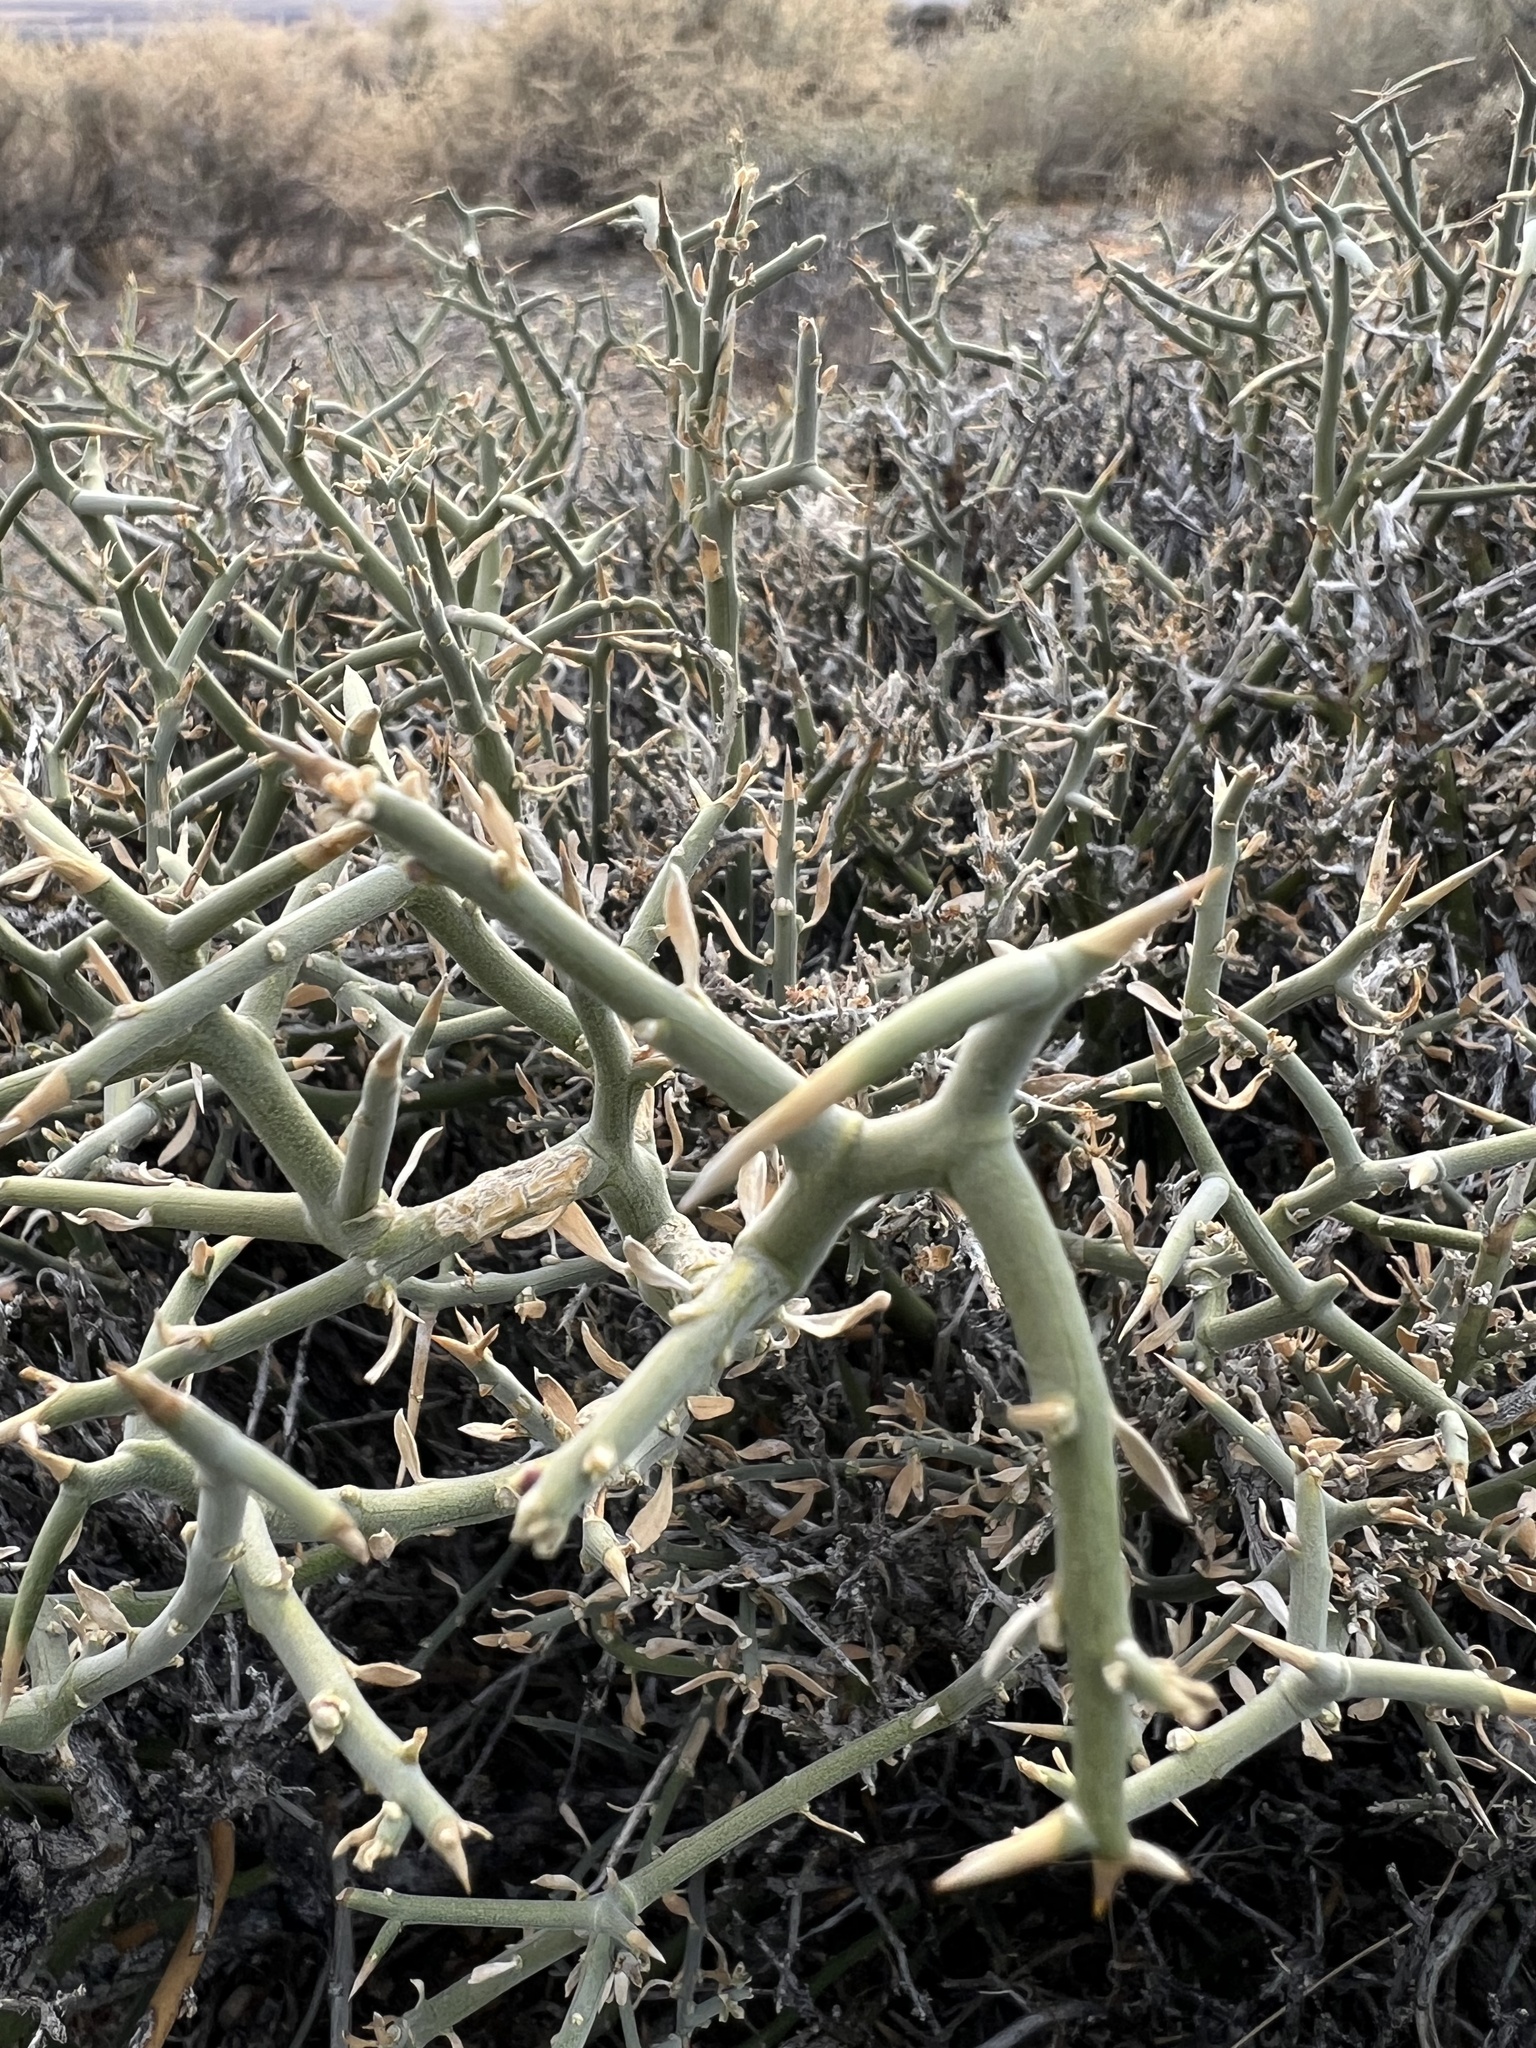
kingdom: Plantae
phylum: Tracheophyta
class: Magnoliopsida
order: Lamiales
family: Oleaceae
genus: Menodora
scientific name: Menodora spinescens
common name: Spiny menodora
